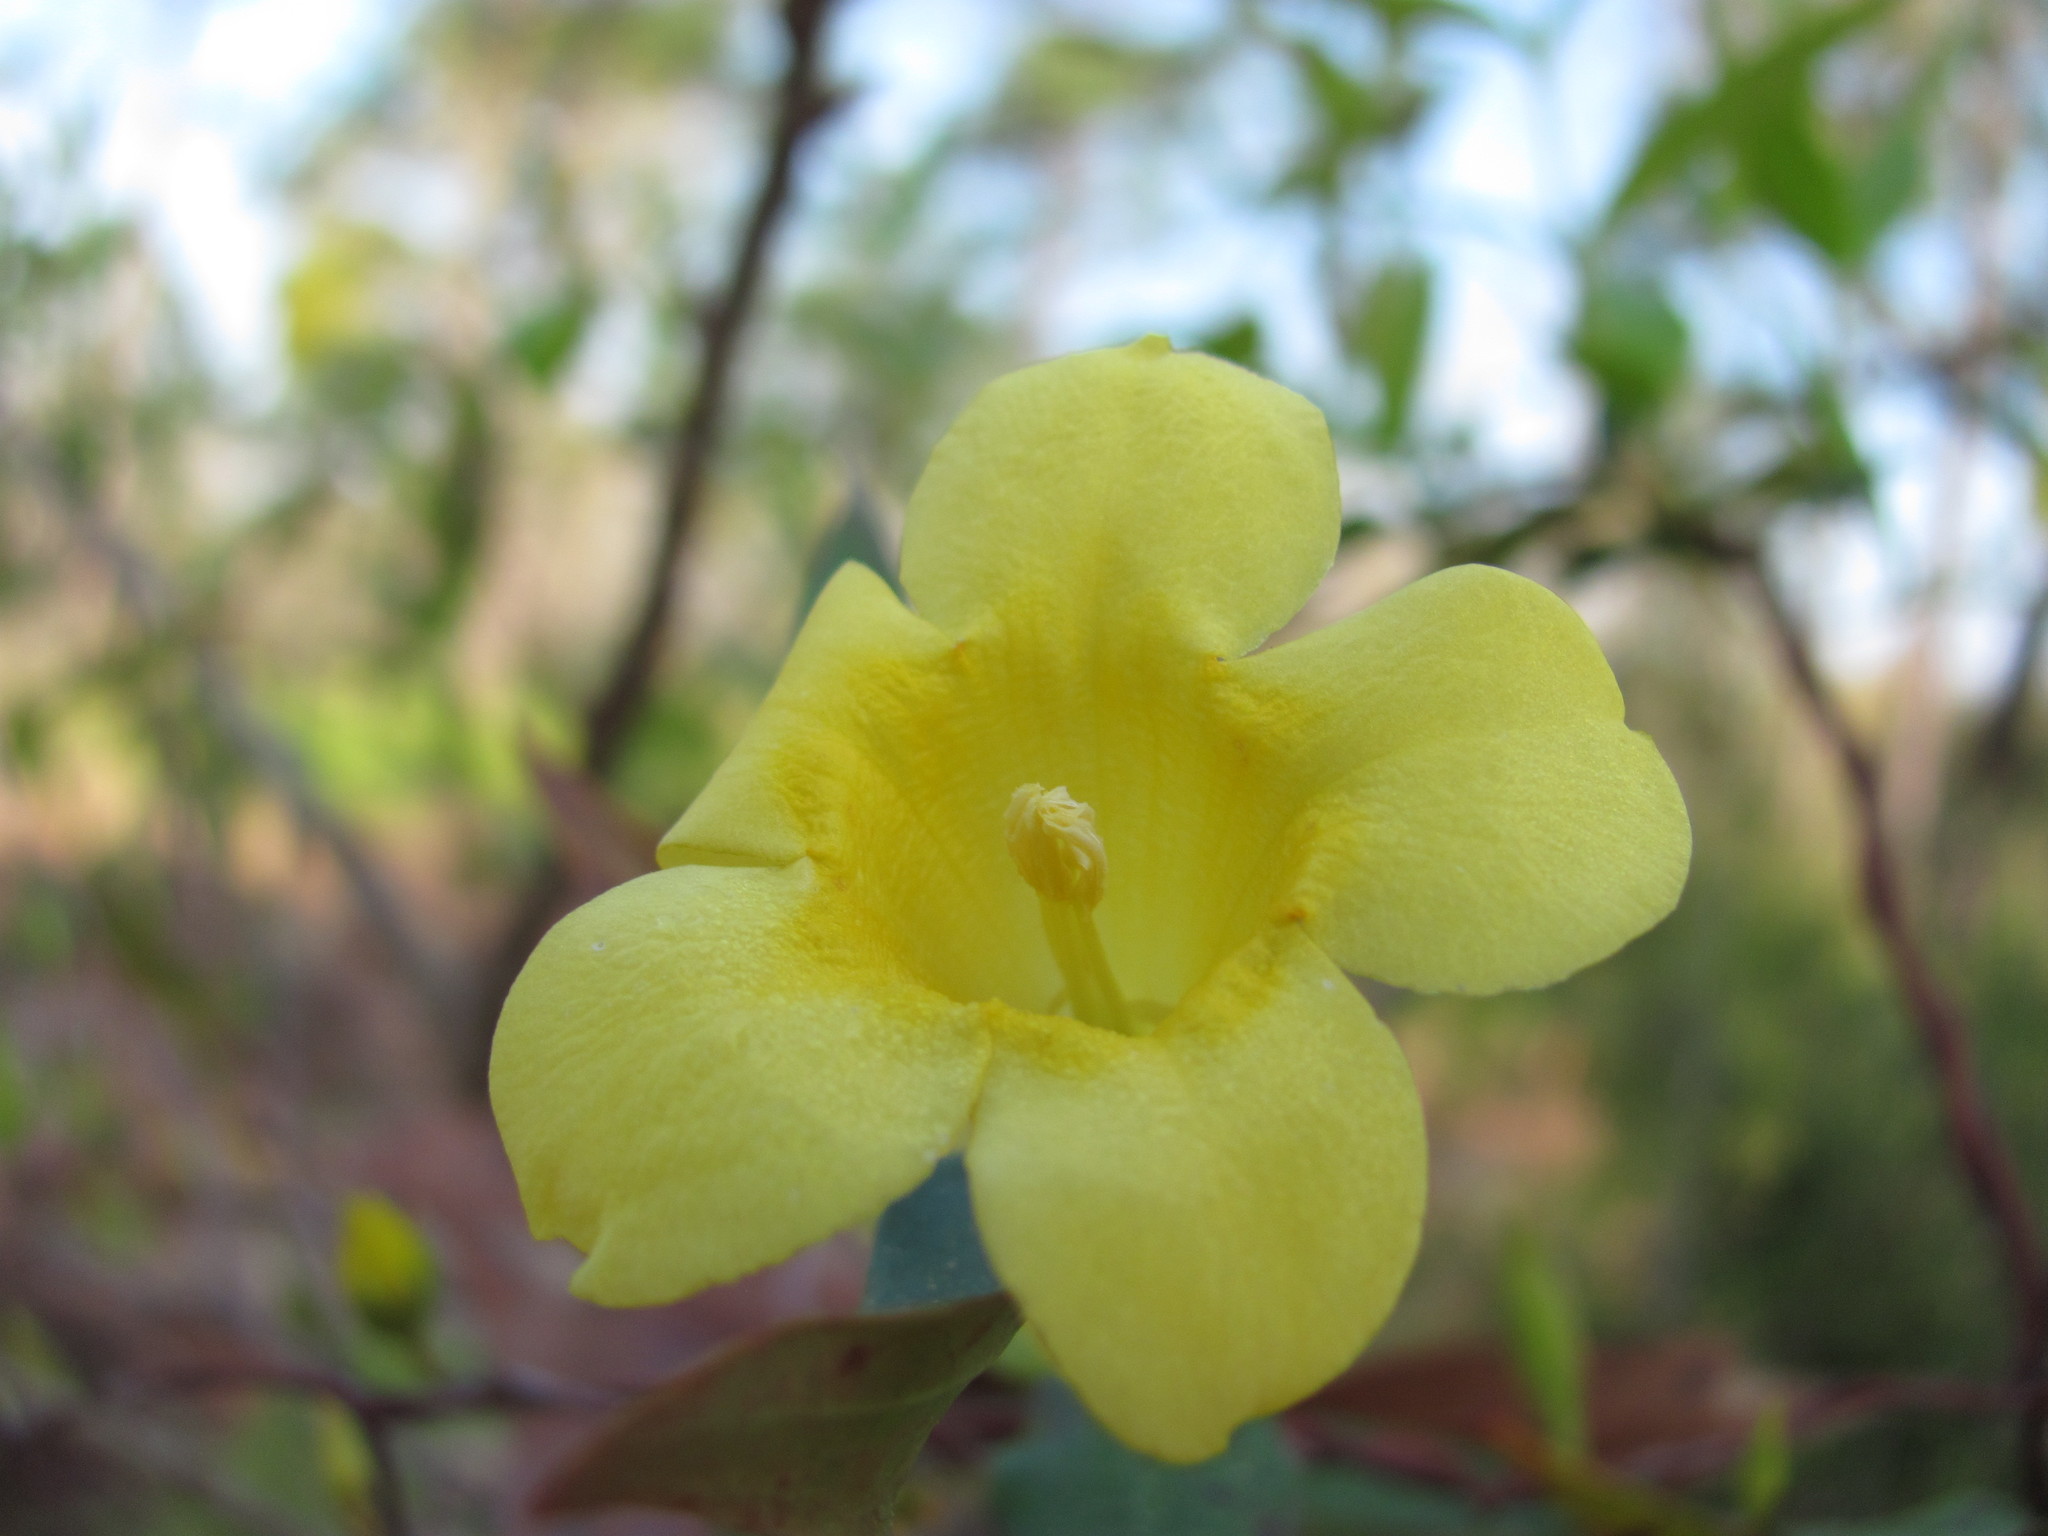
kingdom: Plantae
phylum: Tracheophyta
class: Magnoliopsida
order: Gentianales
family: Gelsemiaceae
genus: Gelsemium
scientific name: Gelsemium sempervirens
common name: Carolina-jasmine
